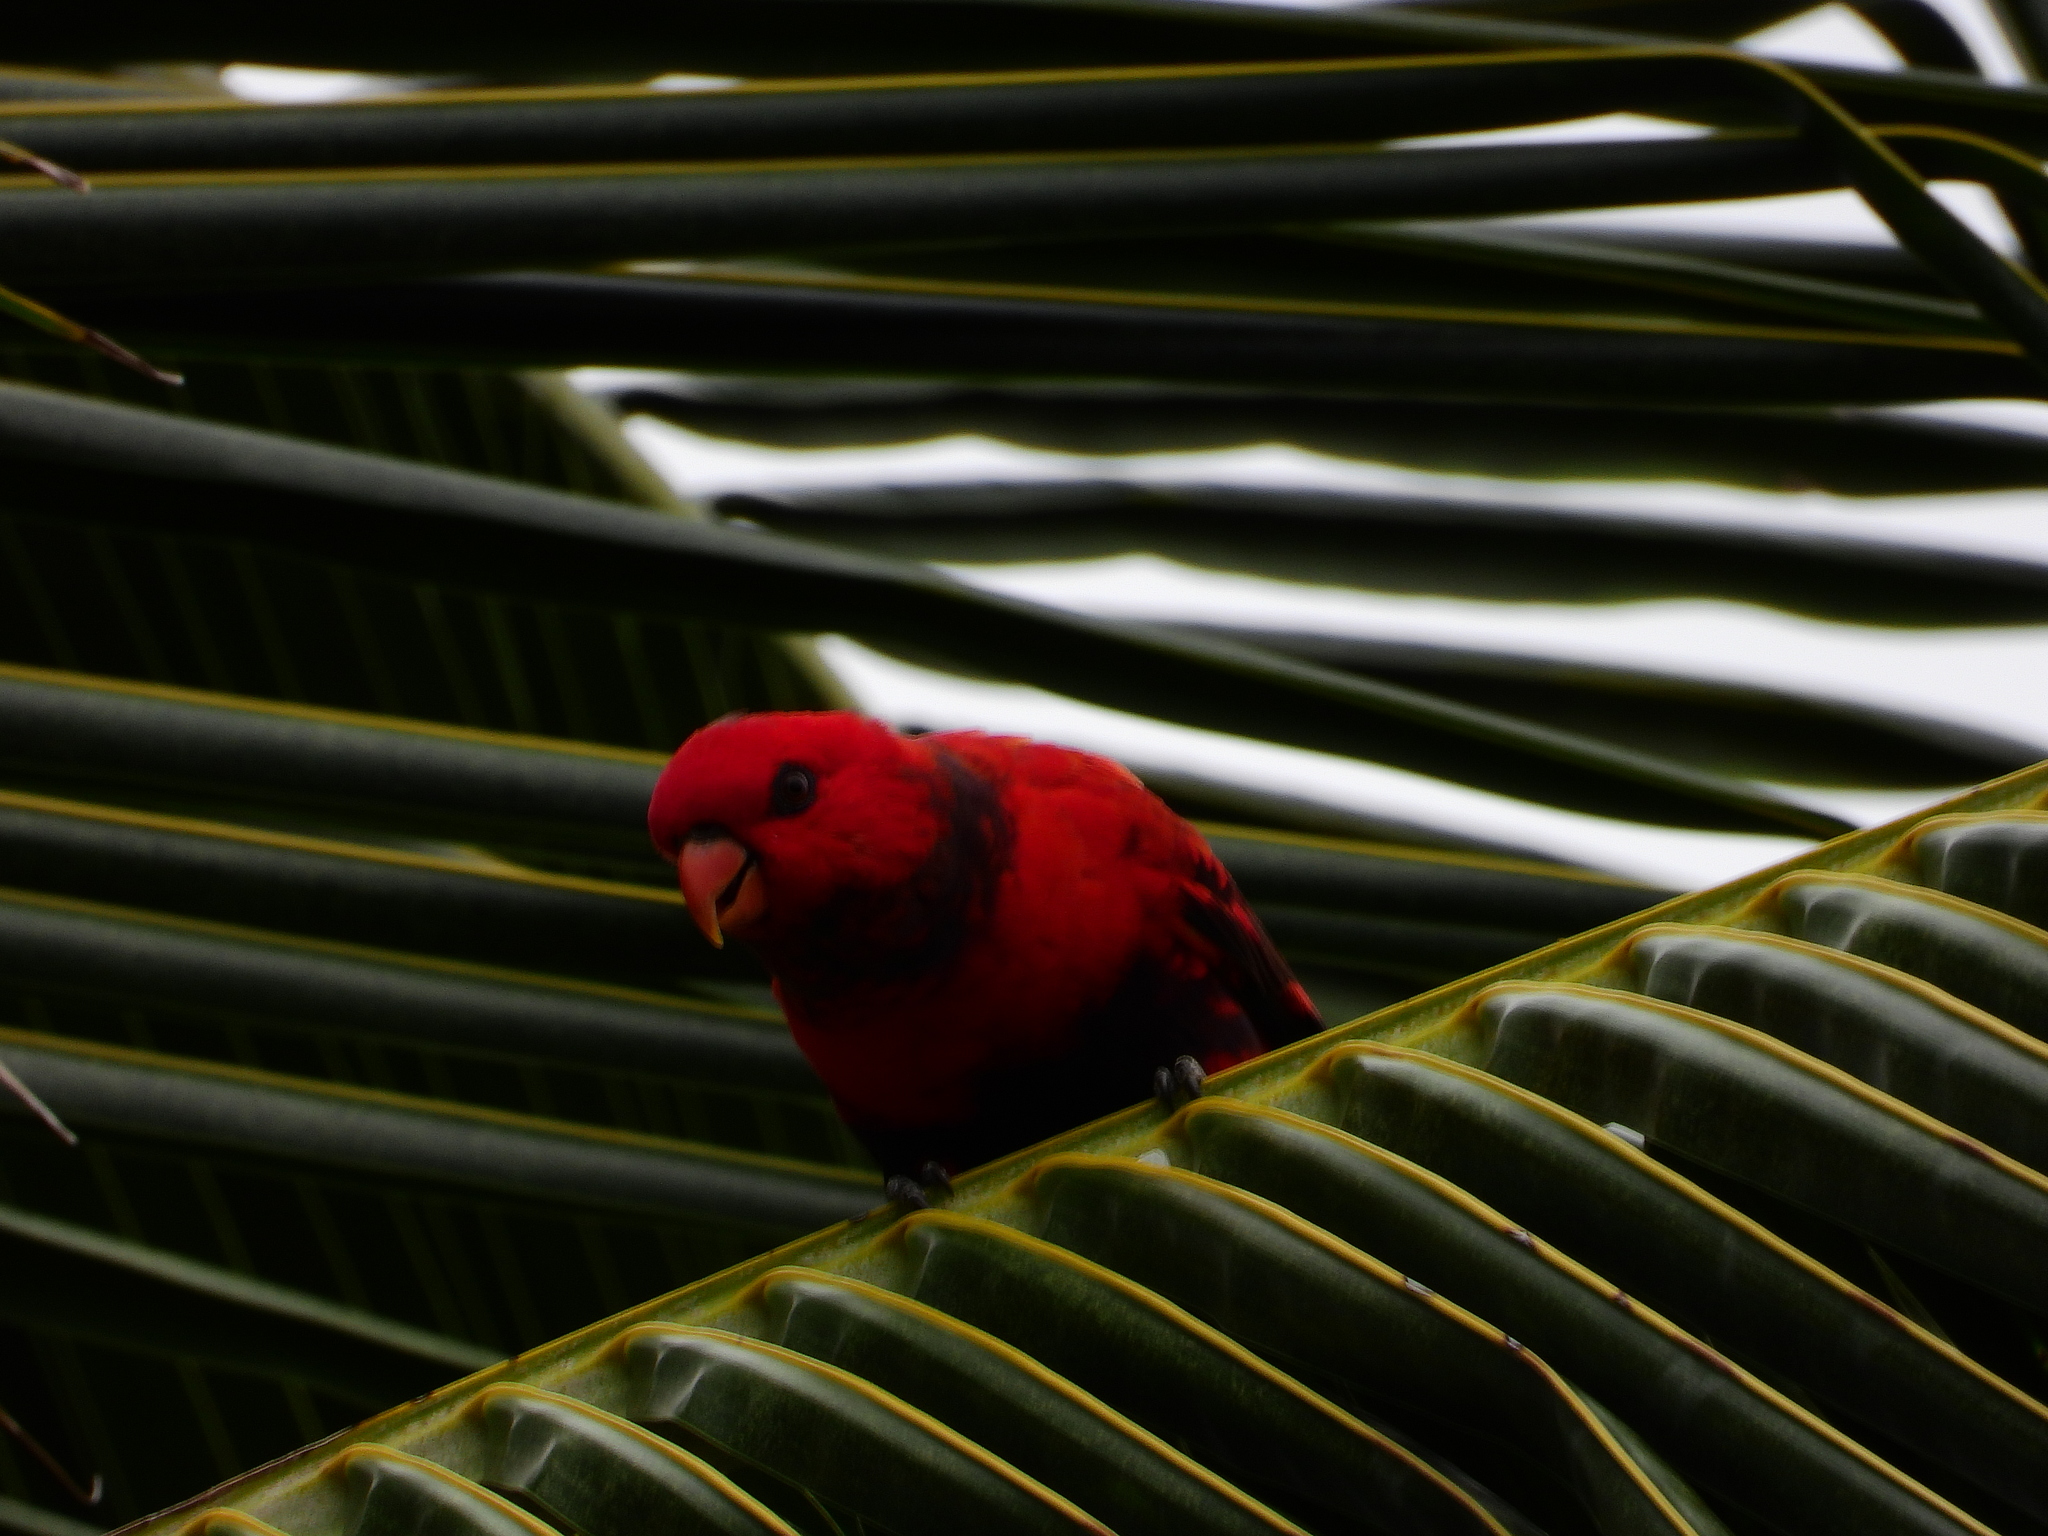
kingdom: Animalia
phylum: Chordata
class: Aves
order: Psittaciformes
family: Psittacidae
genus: Eos
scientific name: Eos squamata
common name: Violet-necked lory
